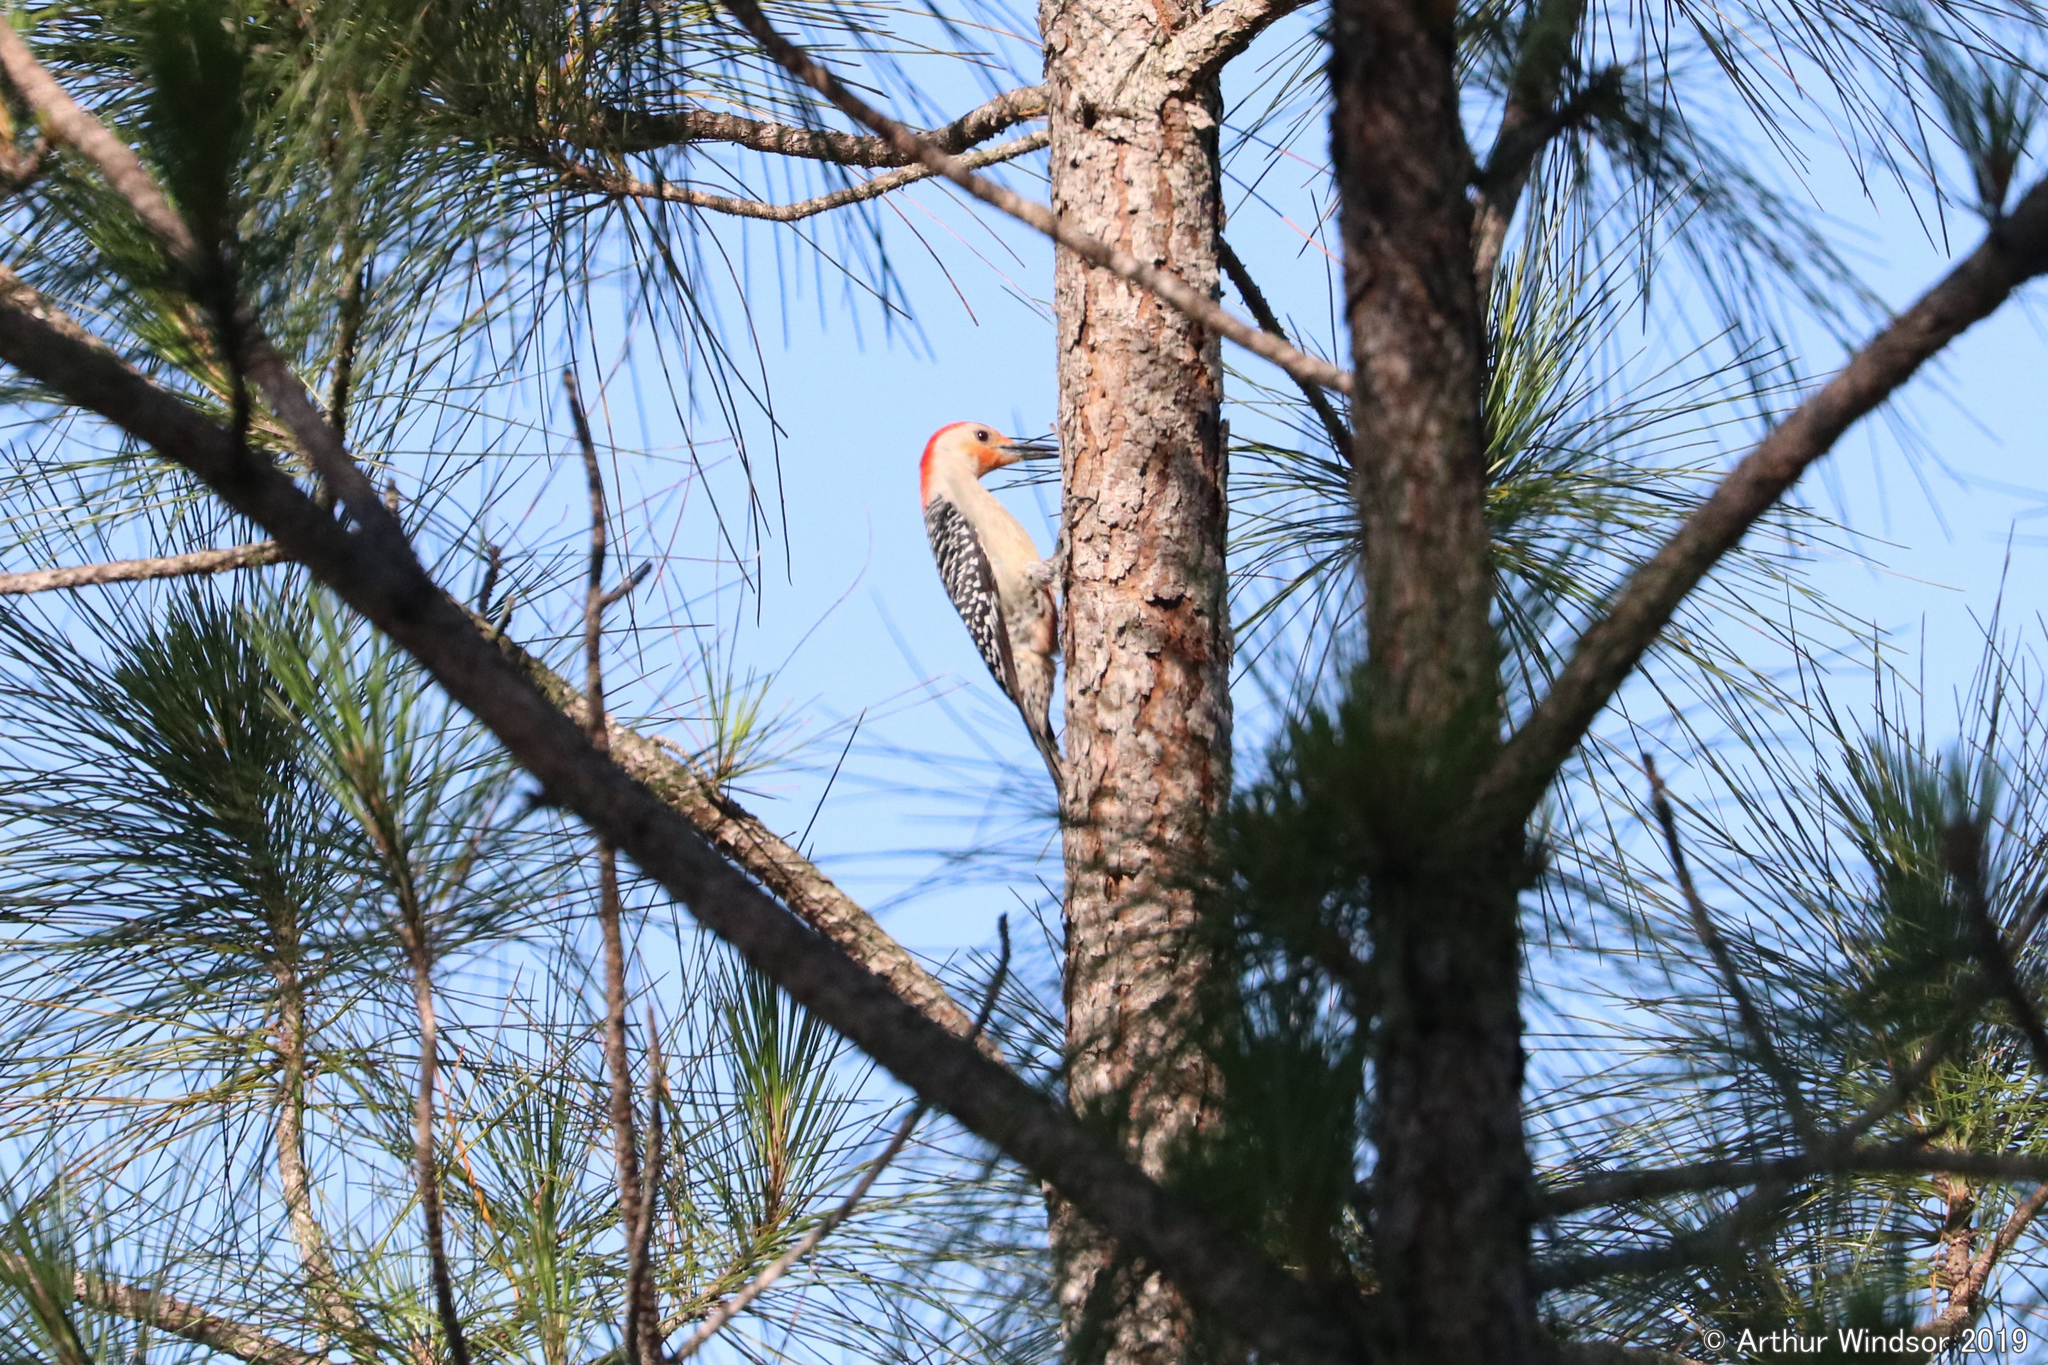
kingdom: Animalia
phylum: Chordata
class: Aves
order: Piciformes
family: Picidae
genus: Melanerpes
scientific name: Melanerpes carolinus
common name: Red-bellied woodpecker
